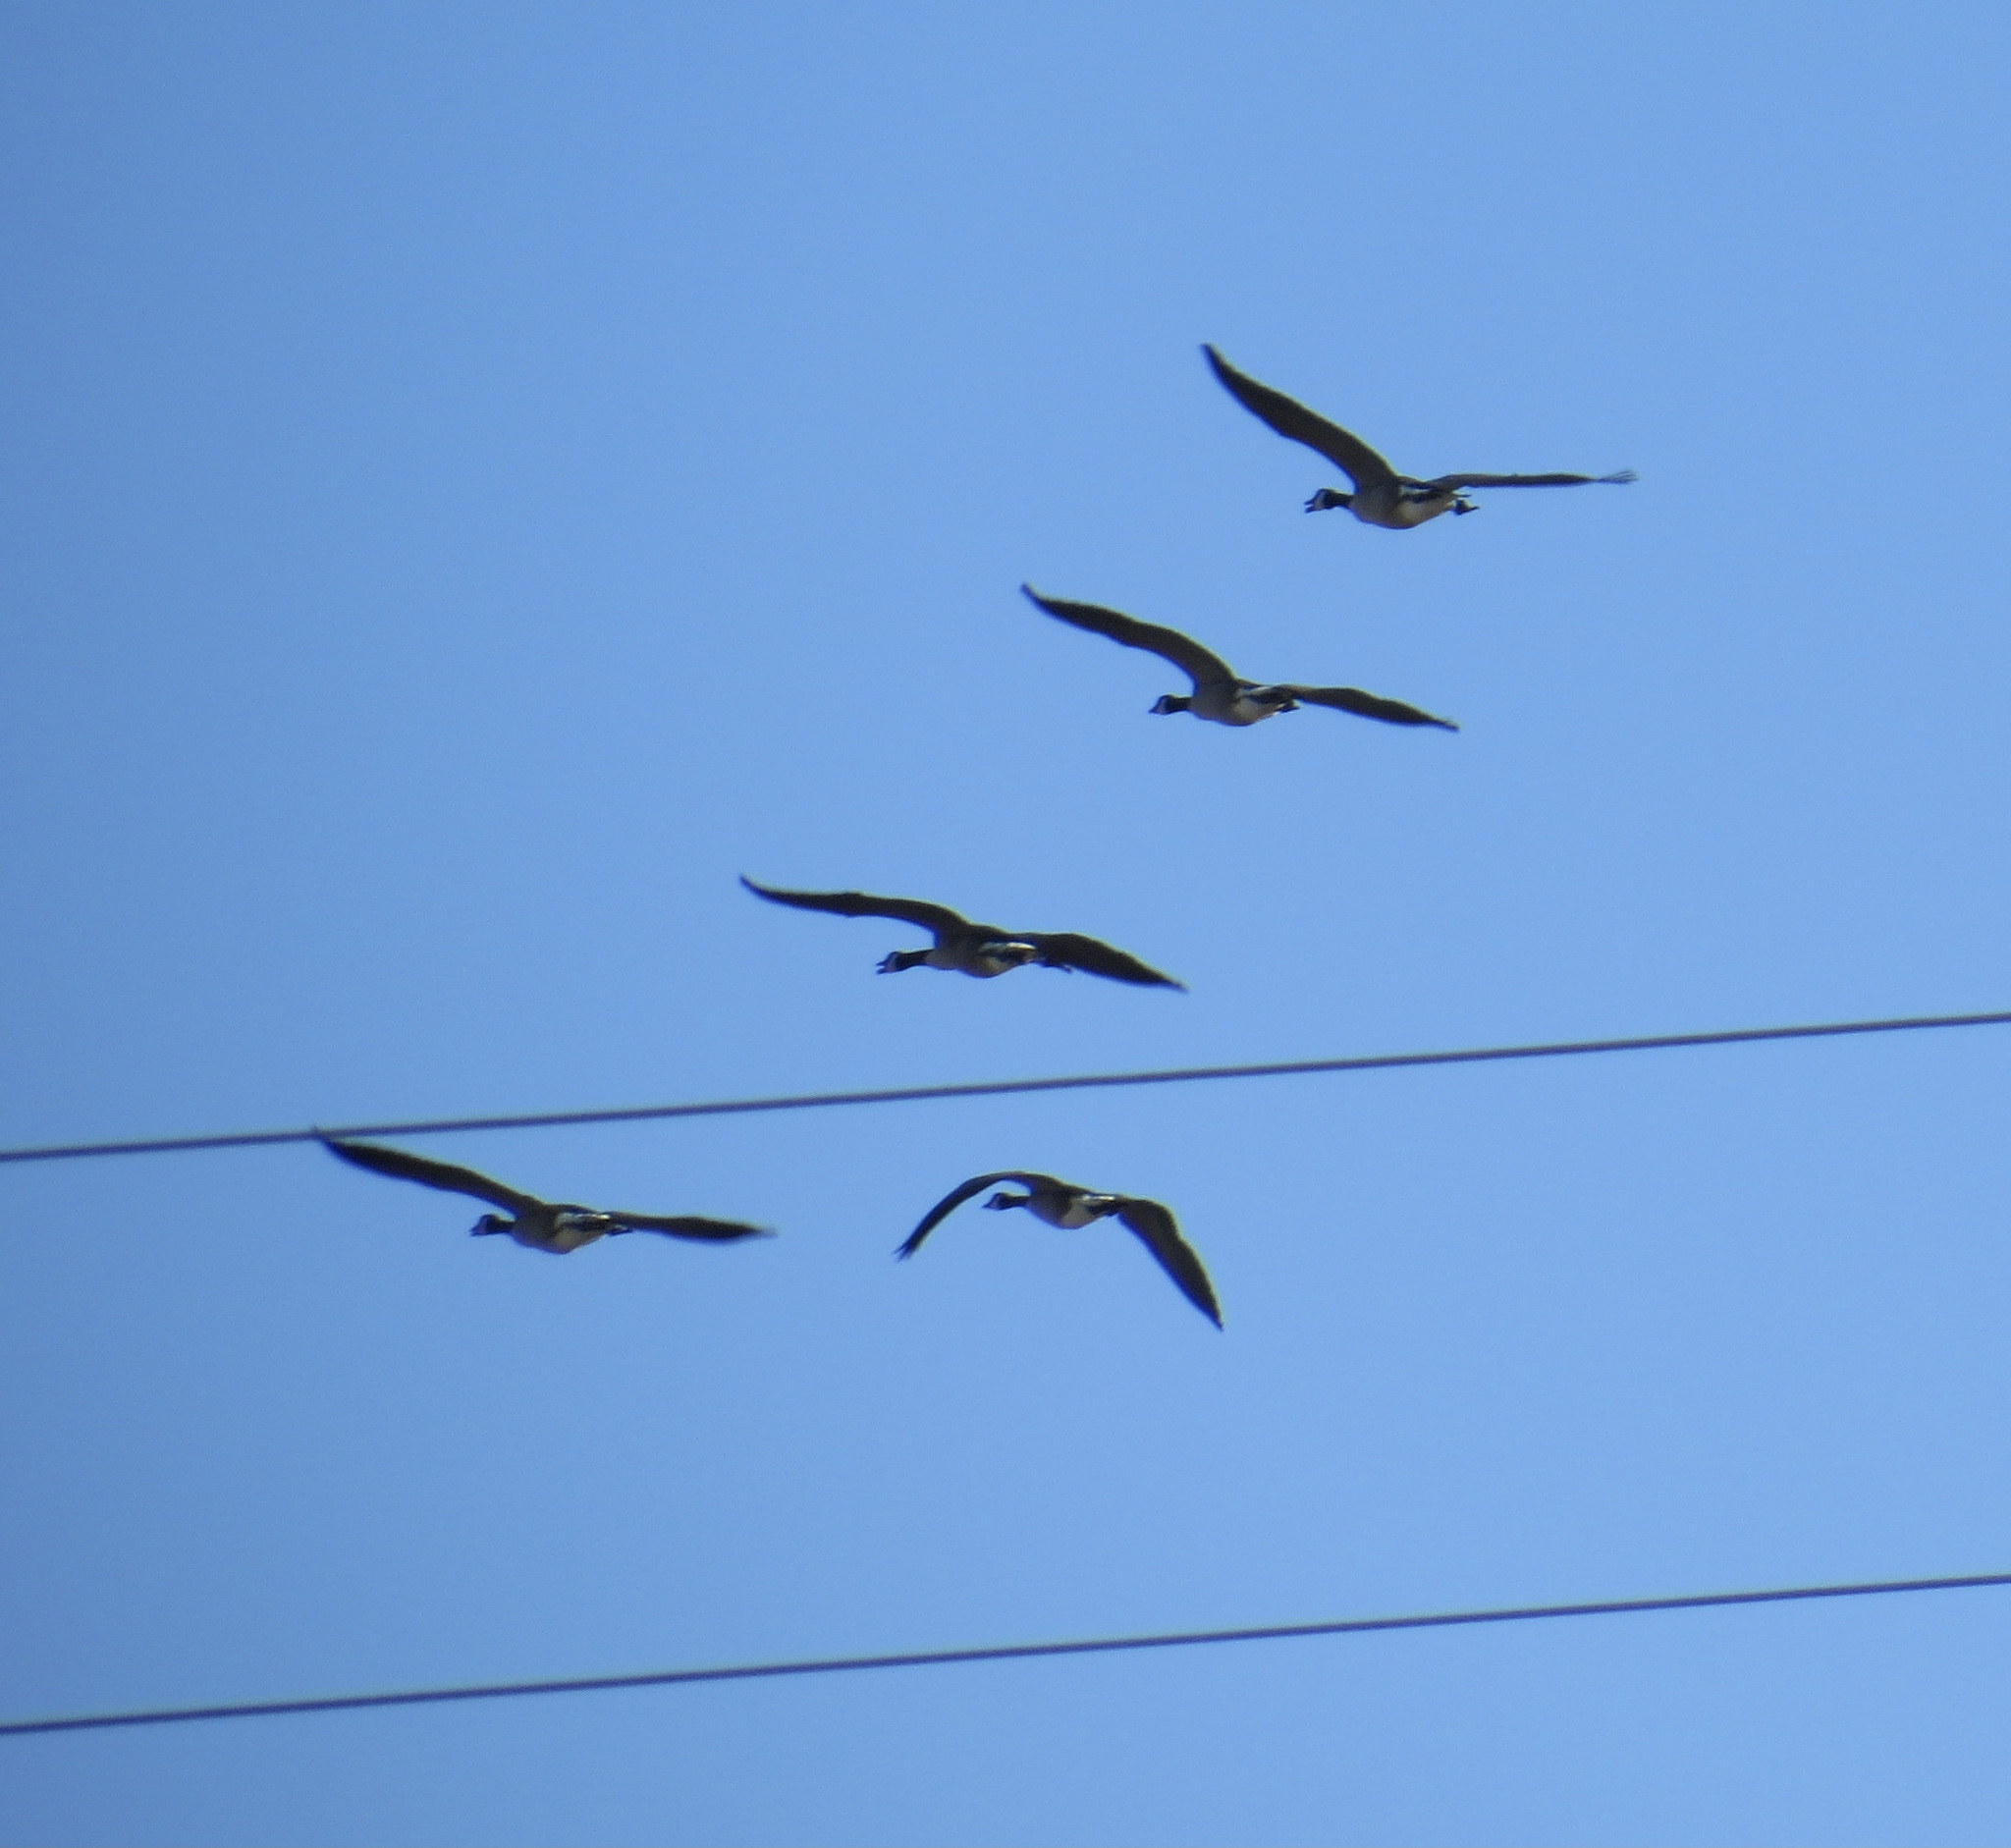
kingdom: Animalia
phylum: Chordata
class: Aves
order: Anseriformes
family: Anatidae
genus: Branta
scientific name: Branta canadensis
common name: Canada goose
